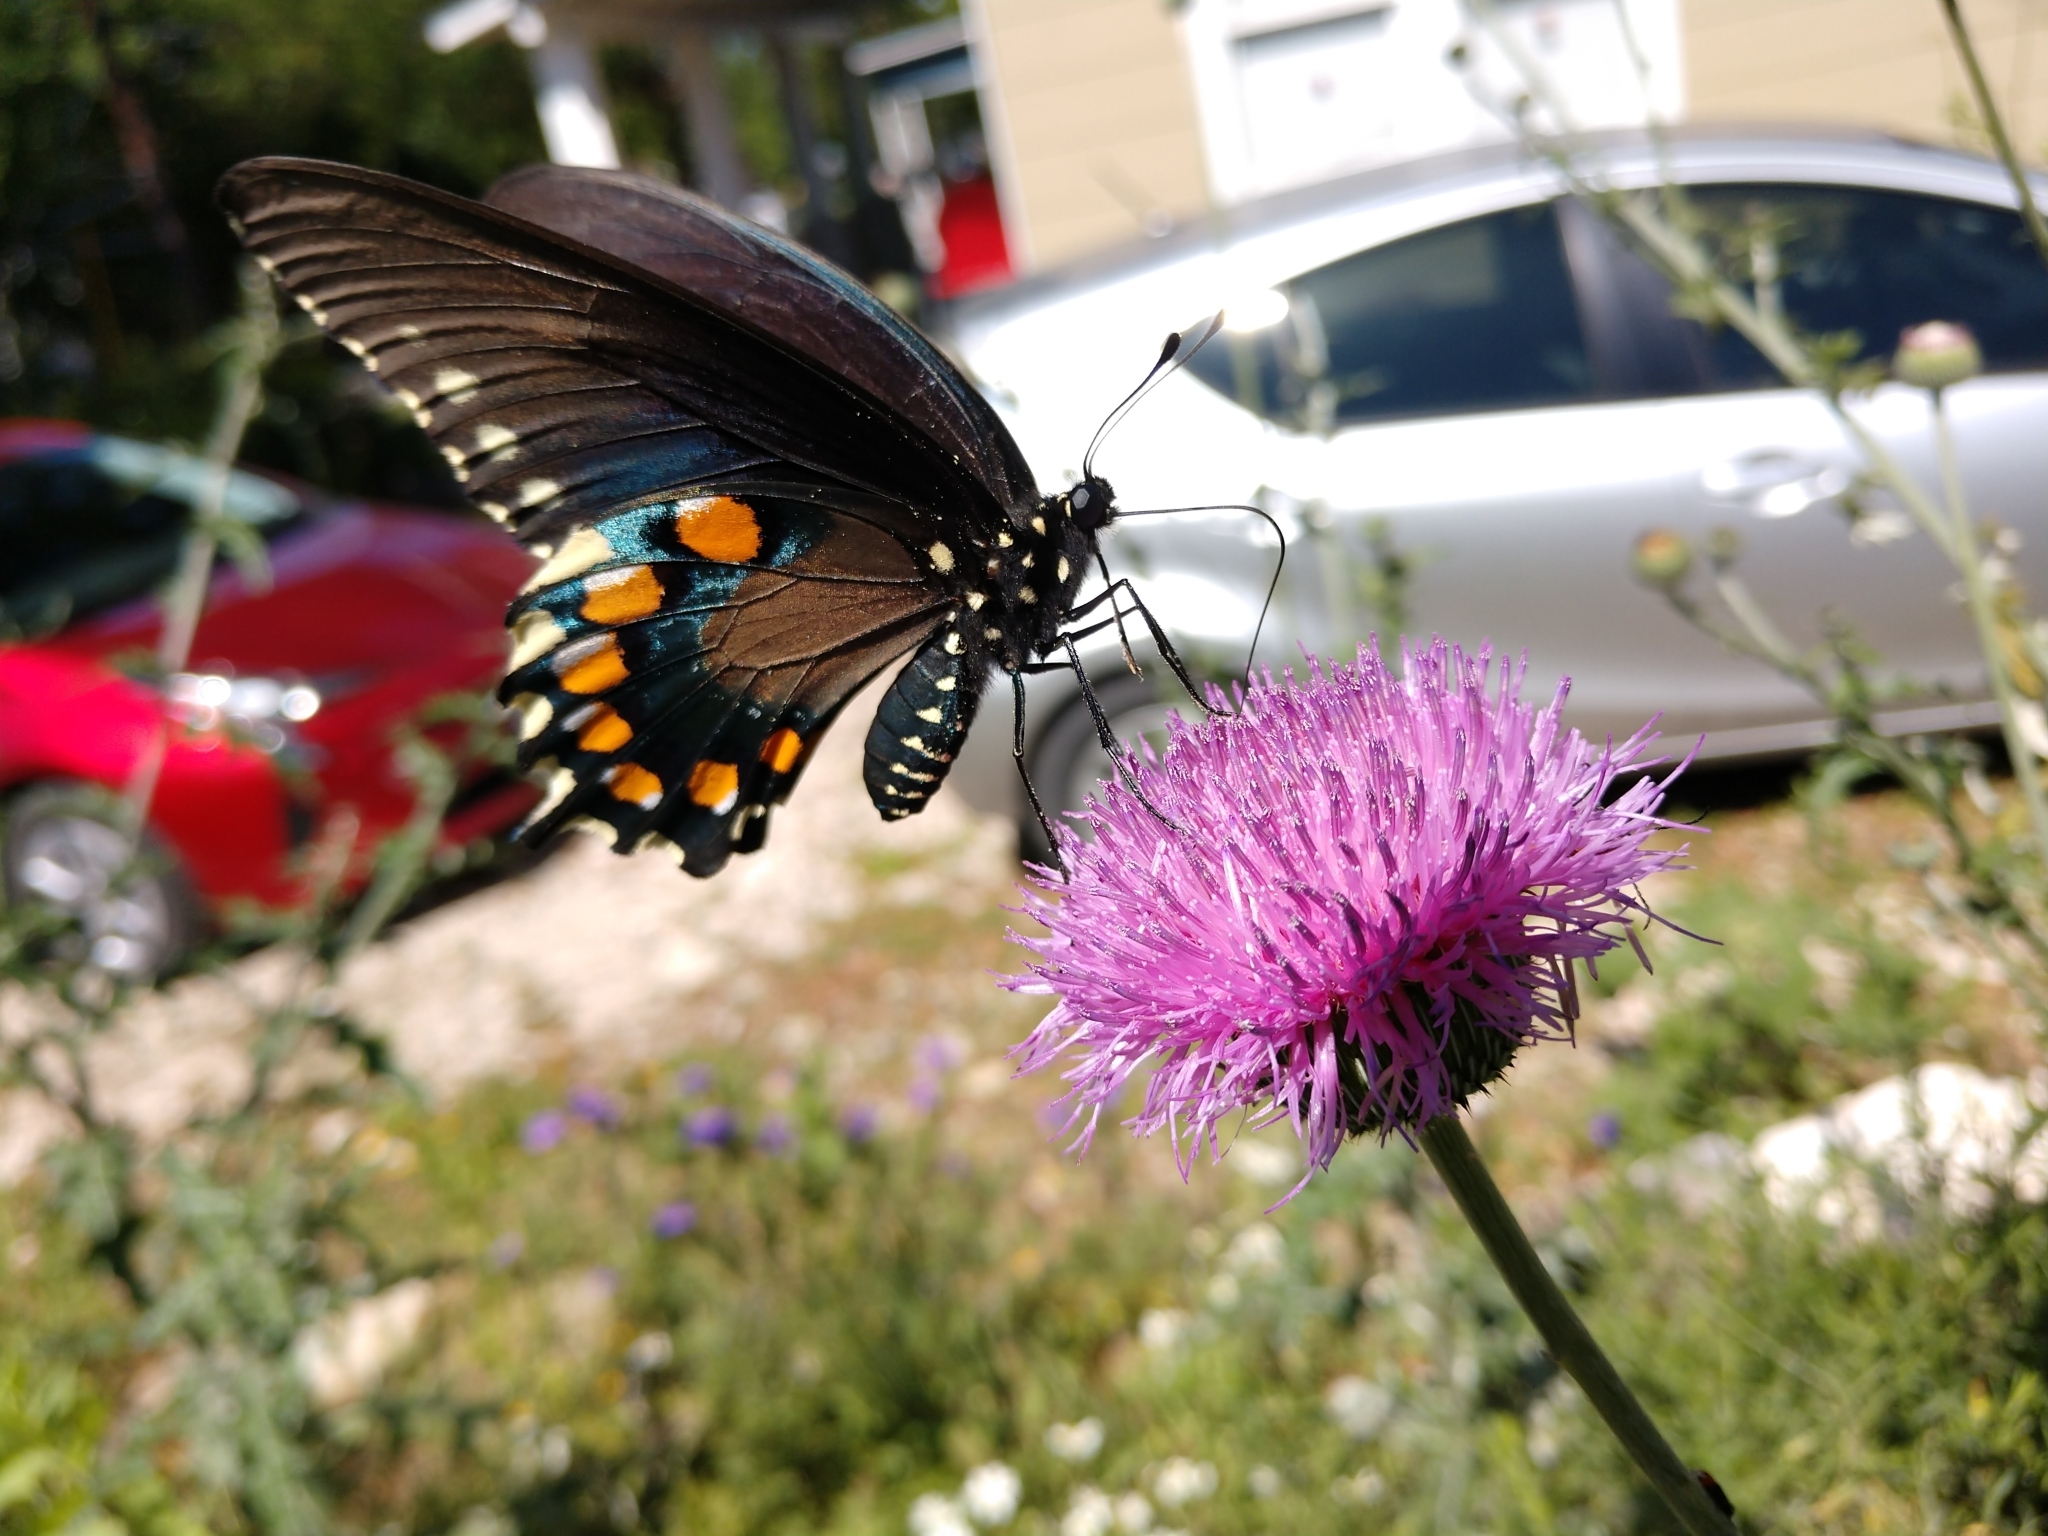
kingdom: Animalia
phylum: Arthropoda
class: Insecta
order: Lepidoptera
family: Papilionidae
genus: Battus
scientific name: Battus philenor
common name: Pipevine swallowtail
